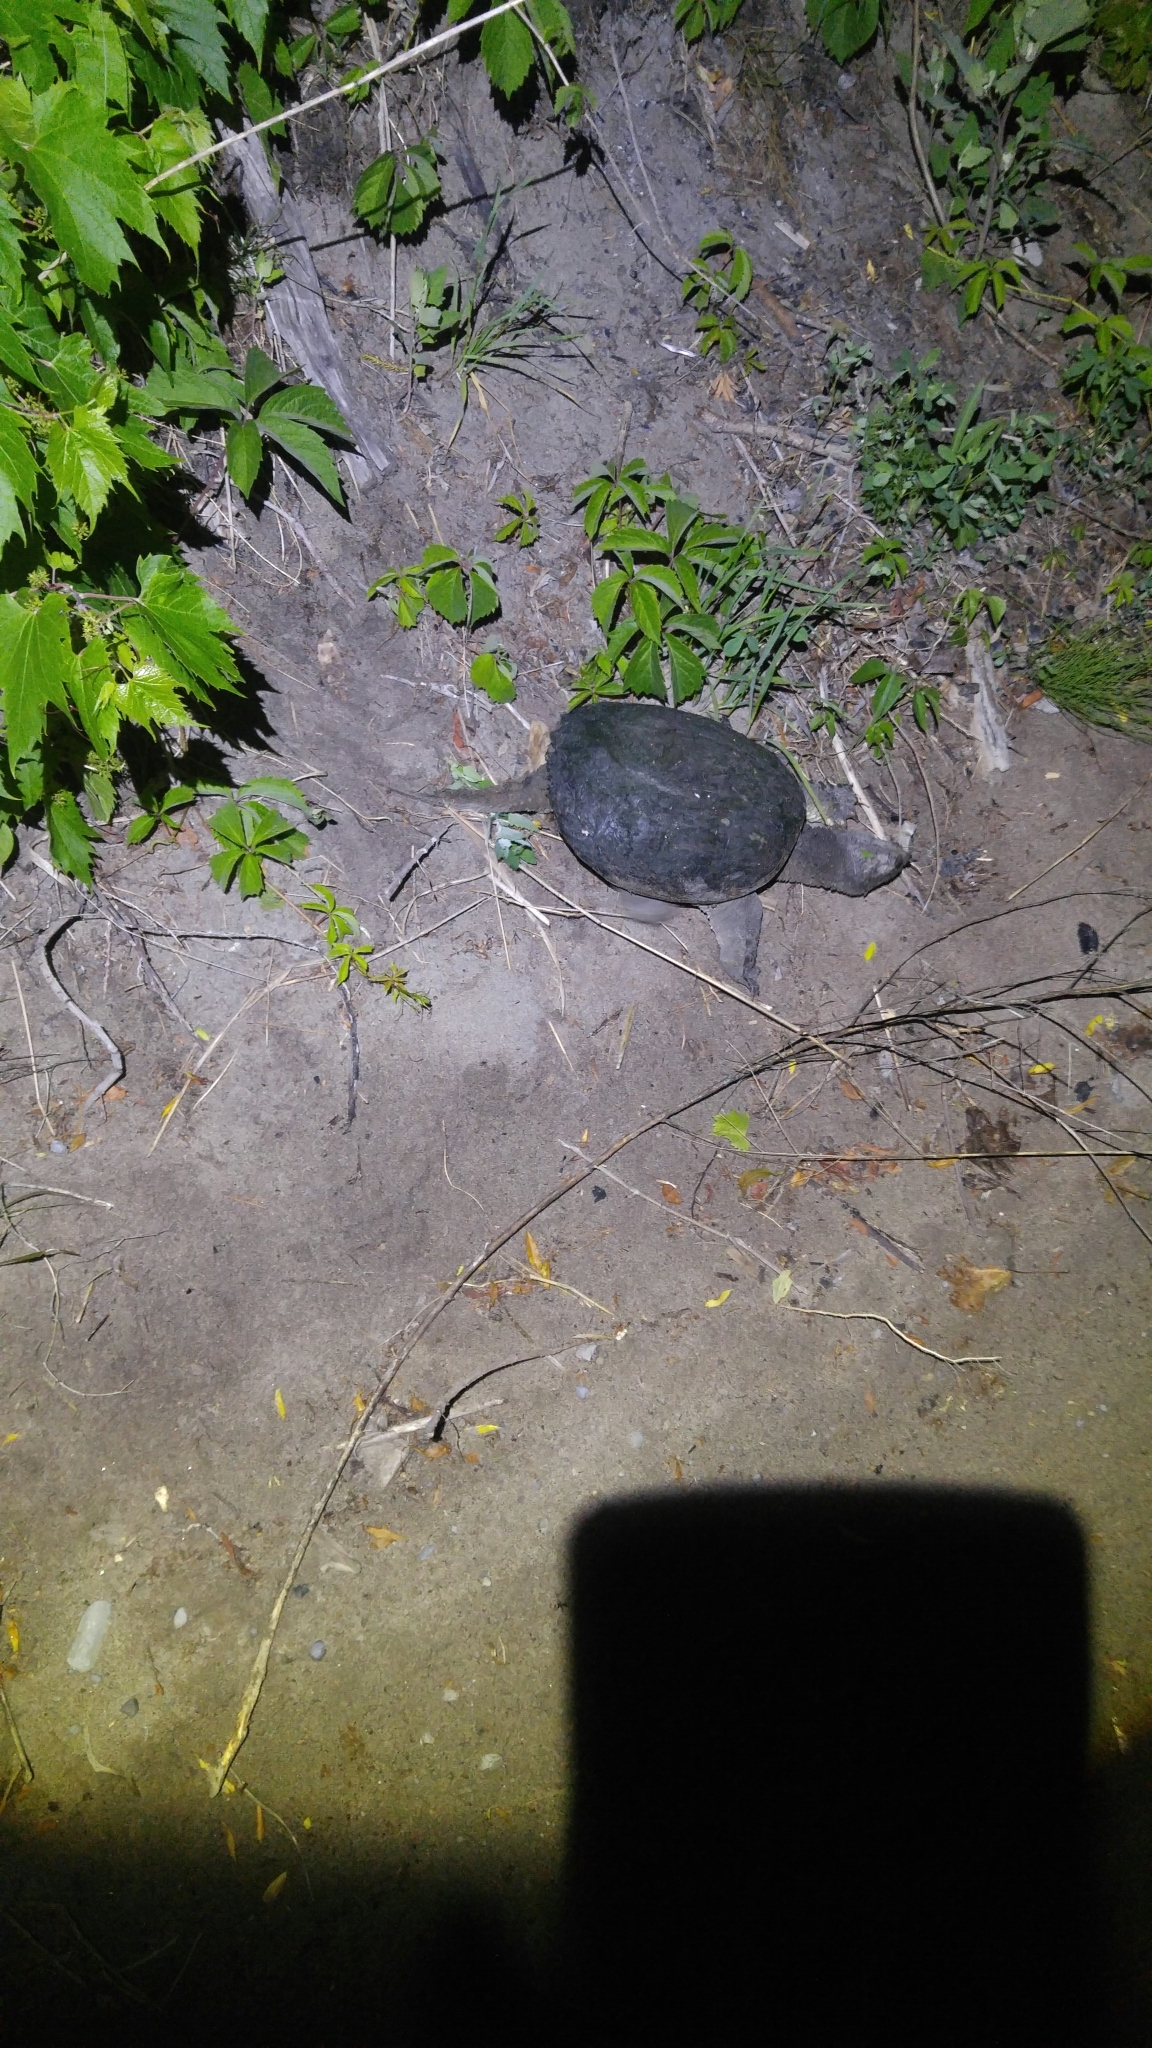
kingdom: Animalia
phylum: Chordata
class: Testudines
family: Chelydridae
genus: Chelydra
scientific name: Chelydra serpentina
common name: Common snapping turtle
